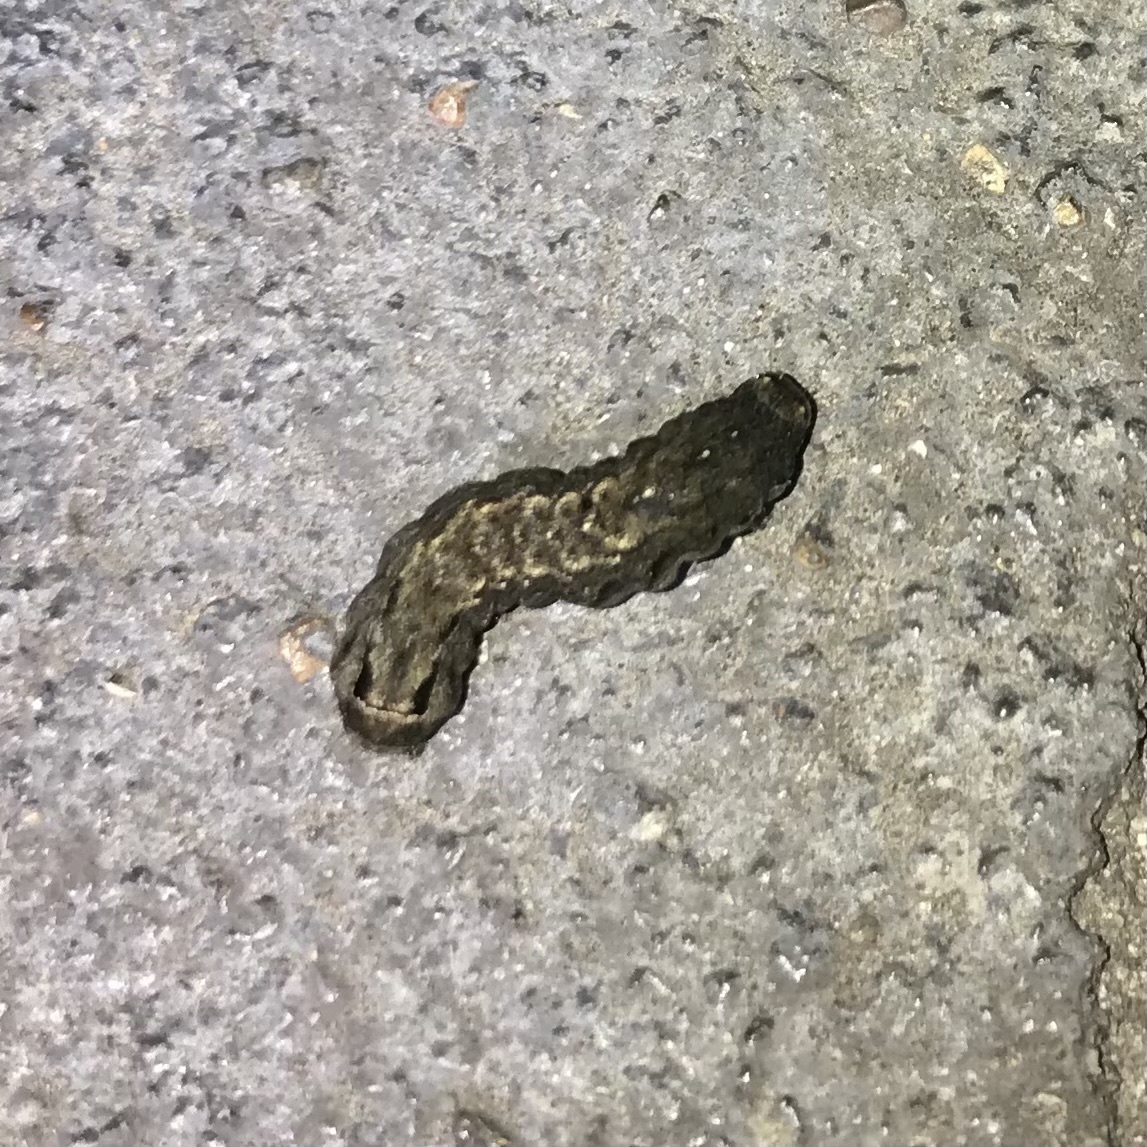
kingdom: Animalia
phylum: Arthropoda
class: Insecta
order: Lepidoptera
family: Noctuidae
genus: Diarsia
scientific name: Diarsia intermixta
